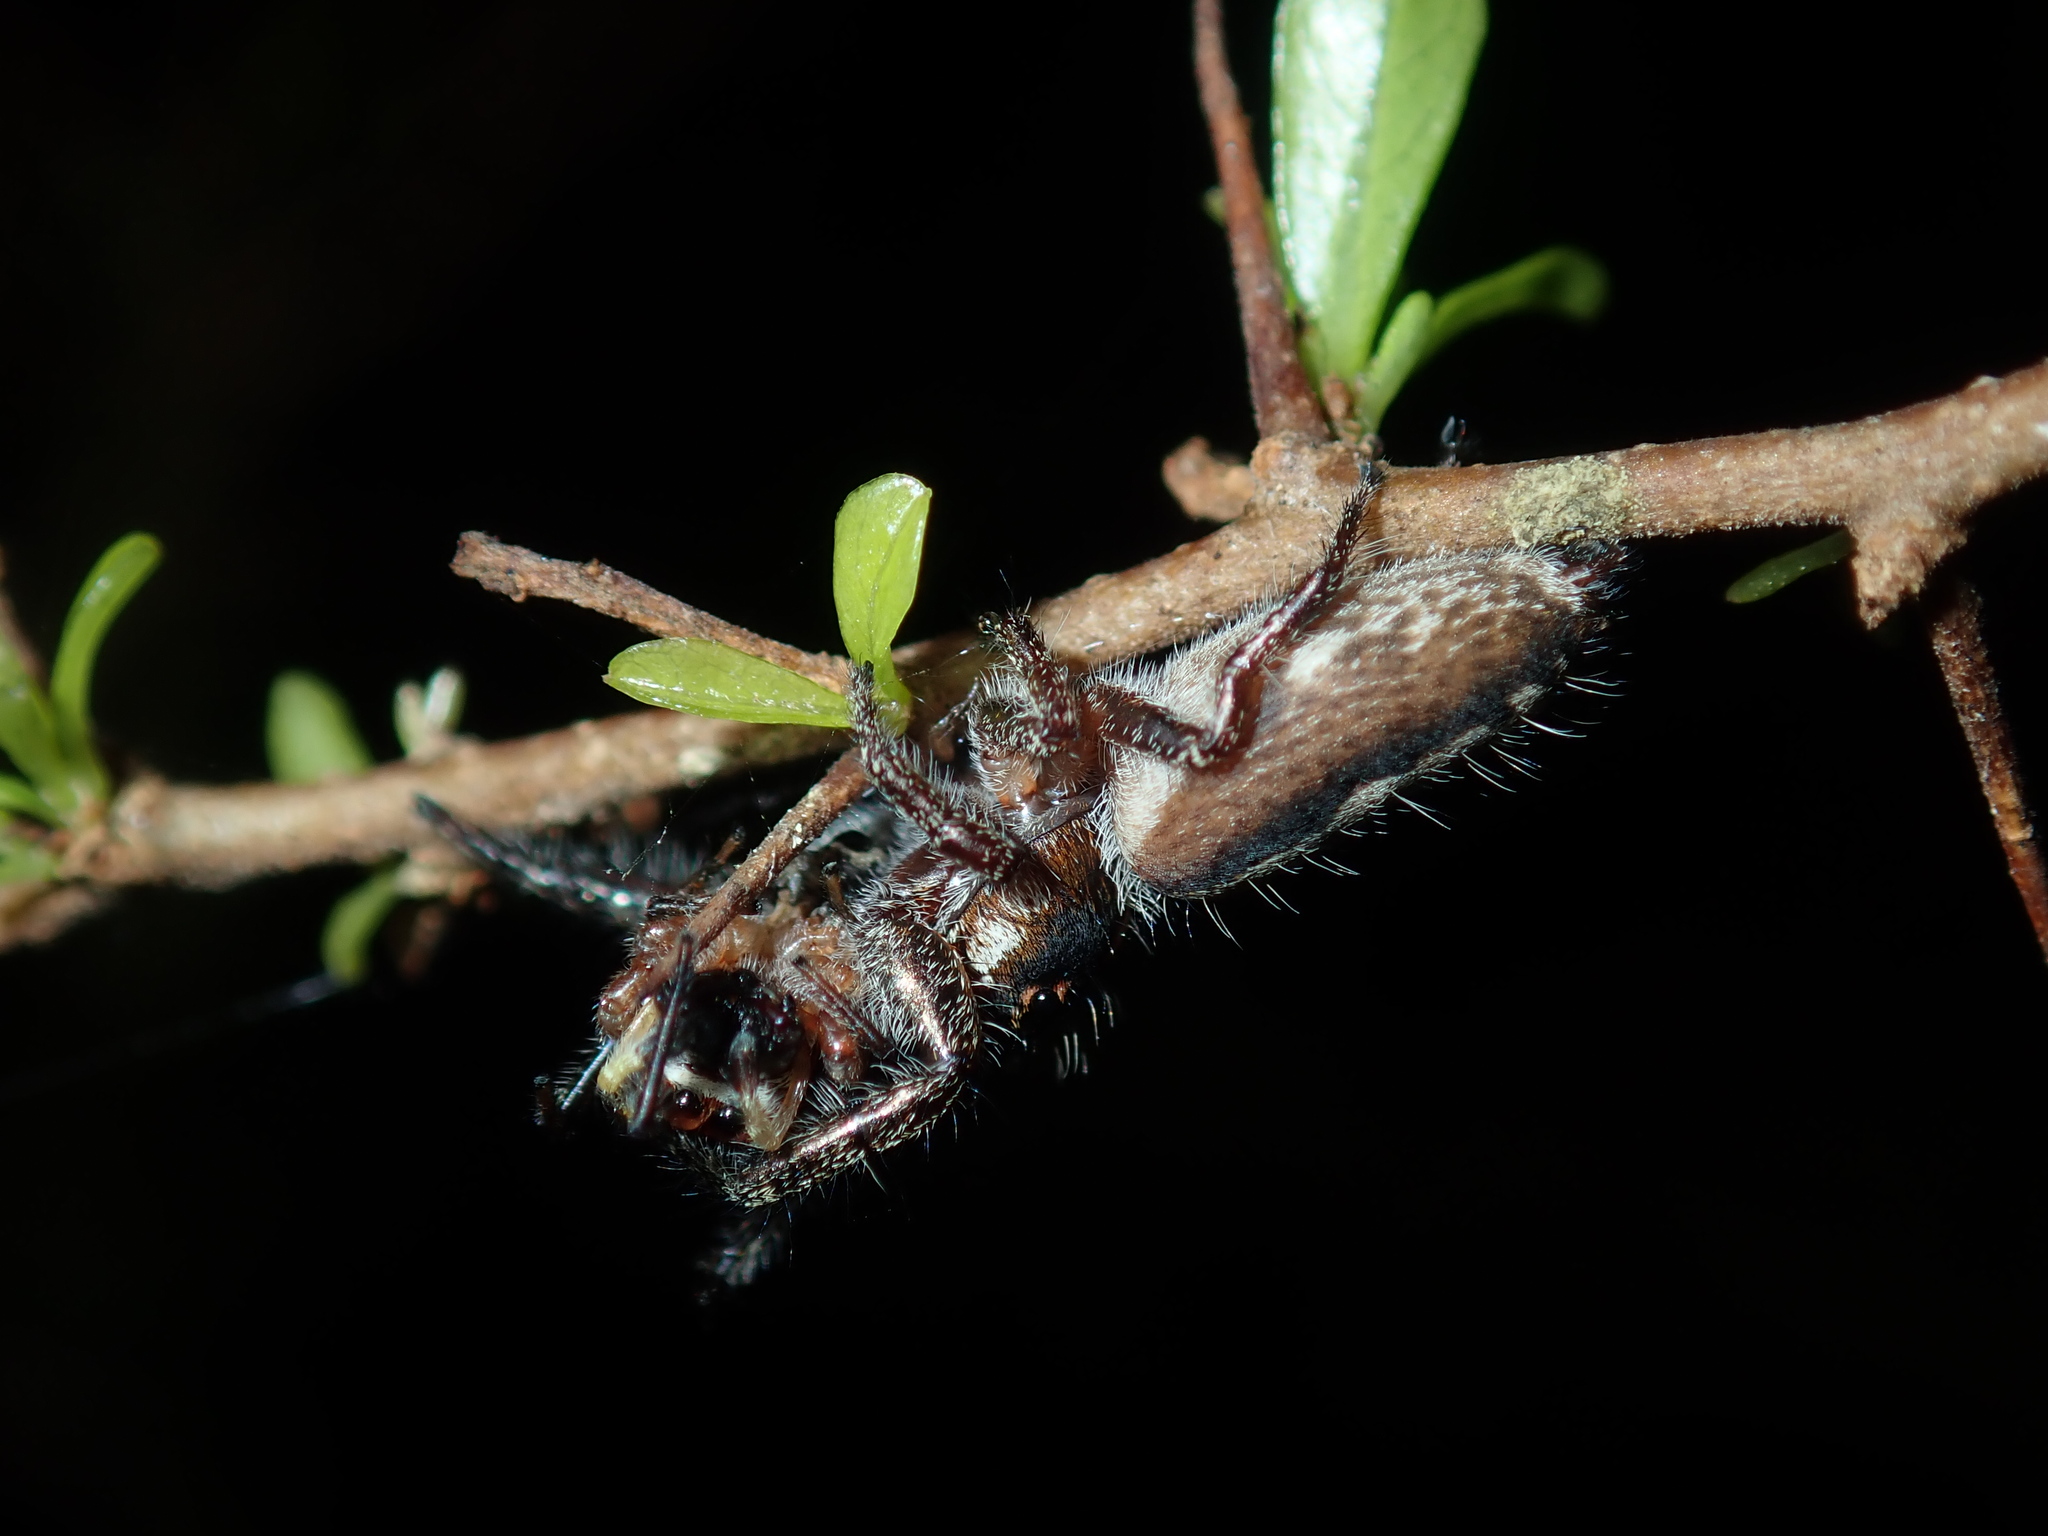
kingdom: Animalia
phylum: Arthropoda
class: Arachnida
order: Araneae
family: Salticidae
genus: Sandalodes
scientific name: Sandalodes bipenicillatus
